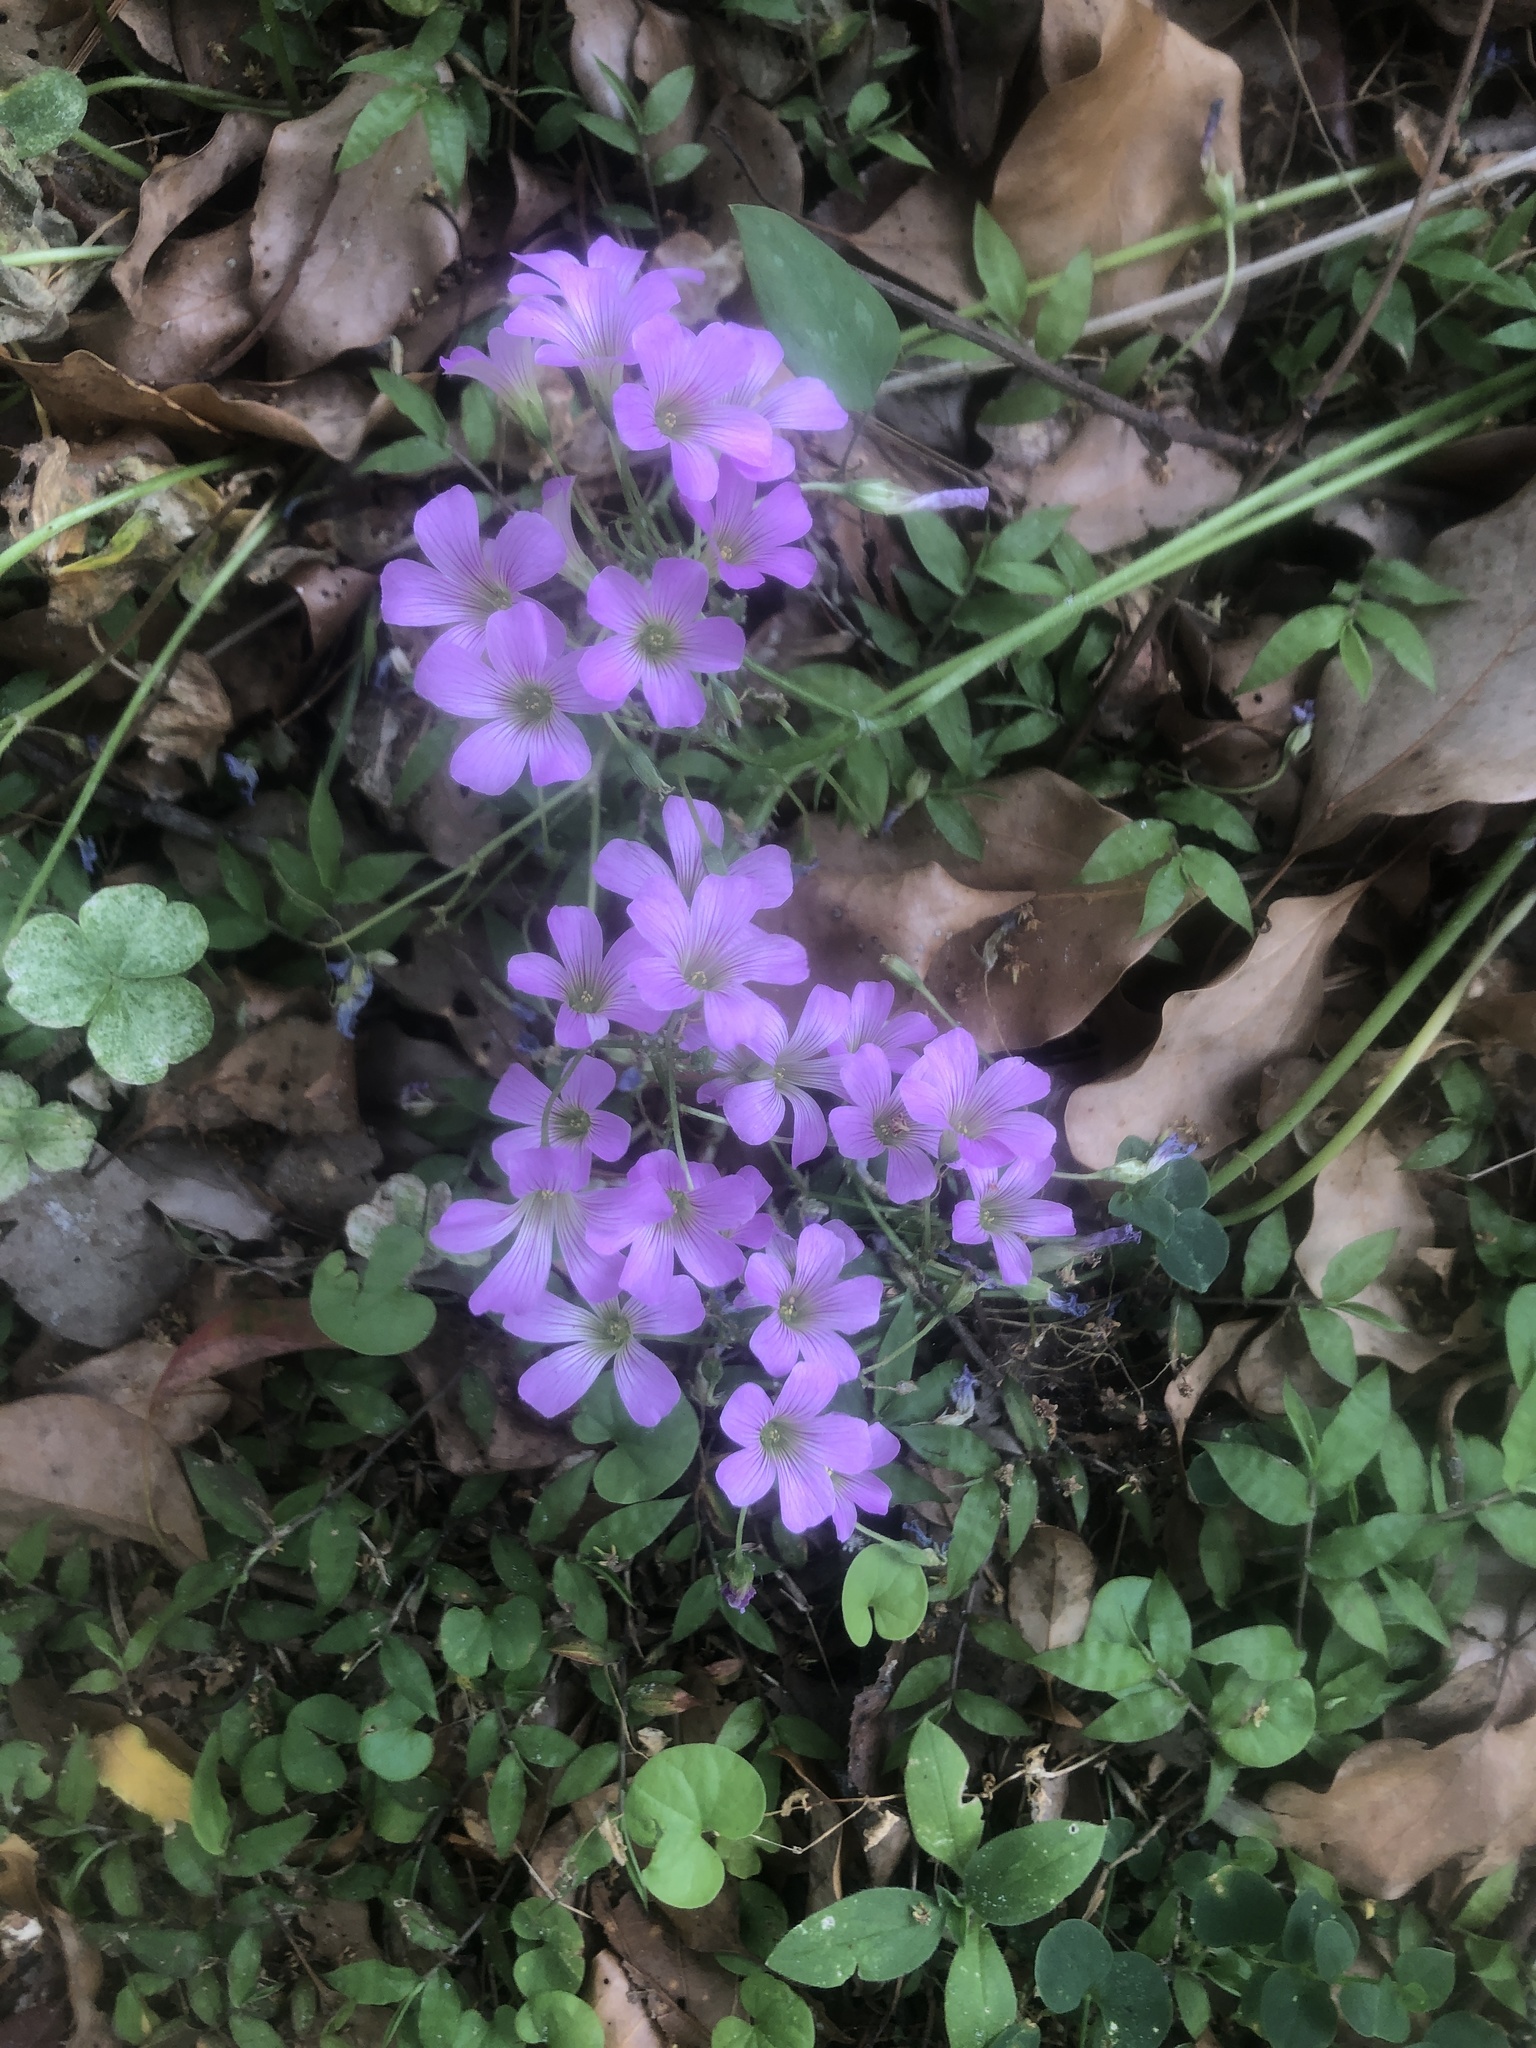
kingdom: Plantae
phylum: Tracheophyta
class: Magnoliopsida
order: Oxalidales
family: Oxalidaceae
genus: Oxalis
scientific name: Oxalis debilis
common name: Large-flowered pink-sorrel
